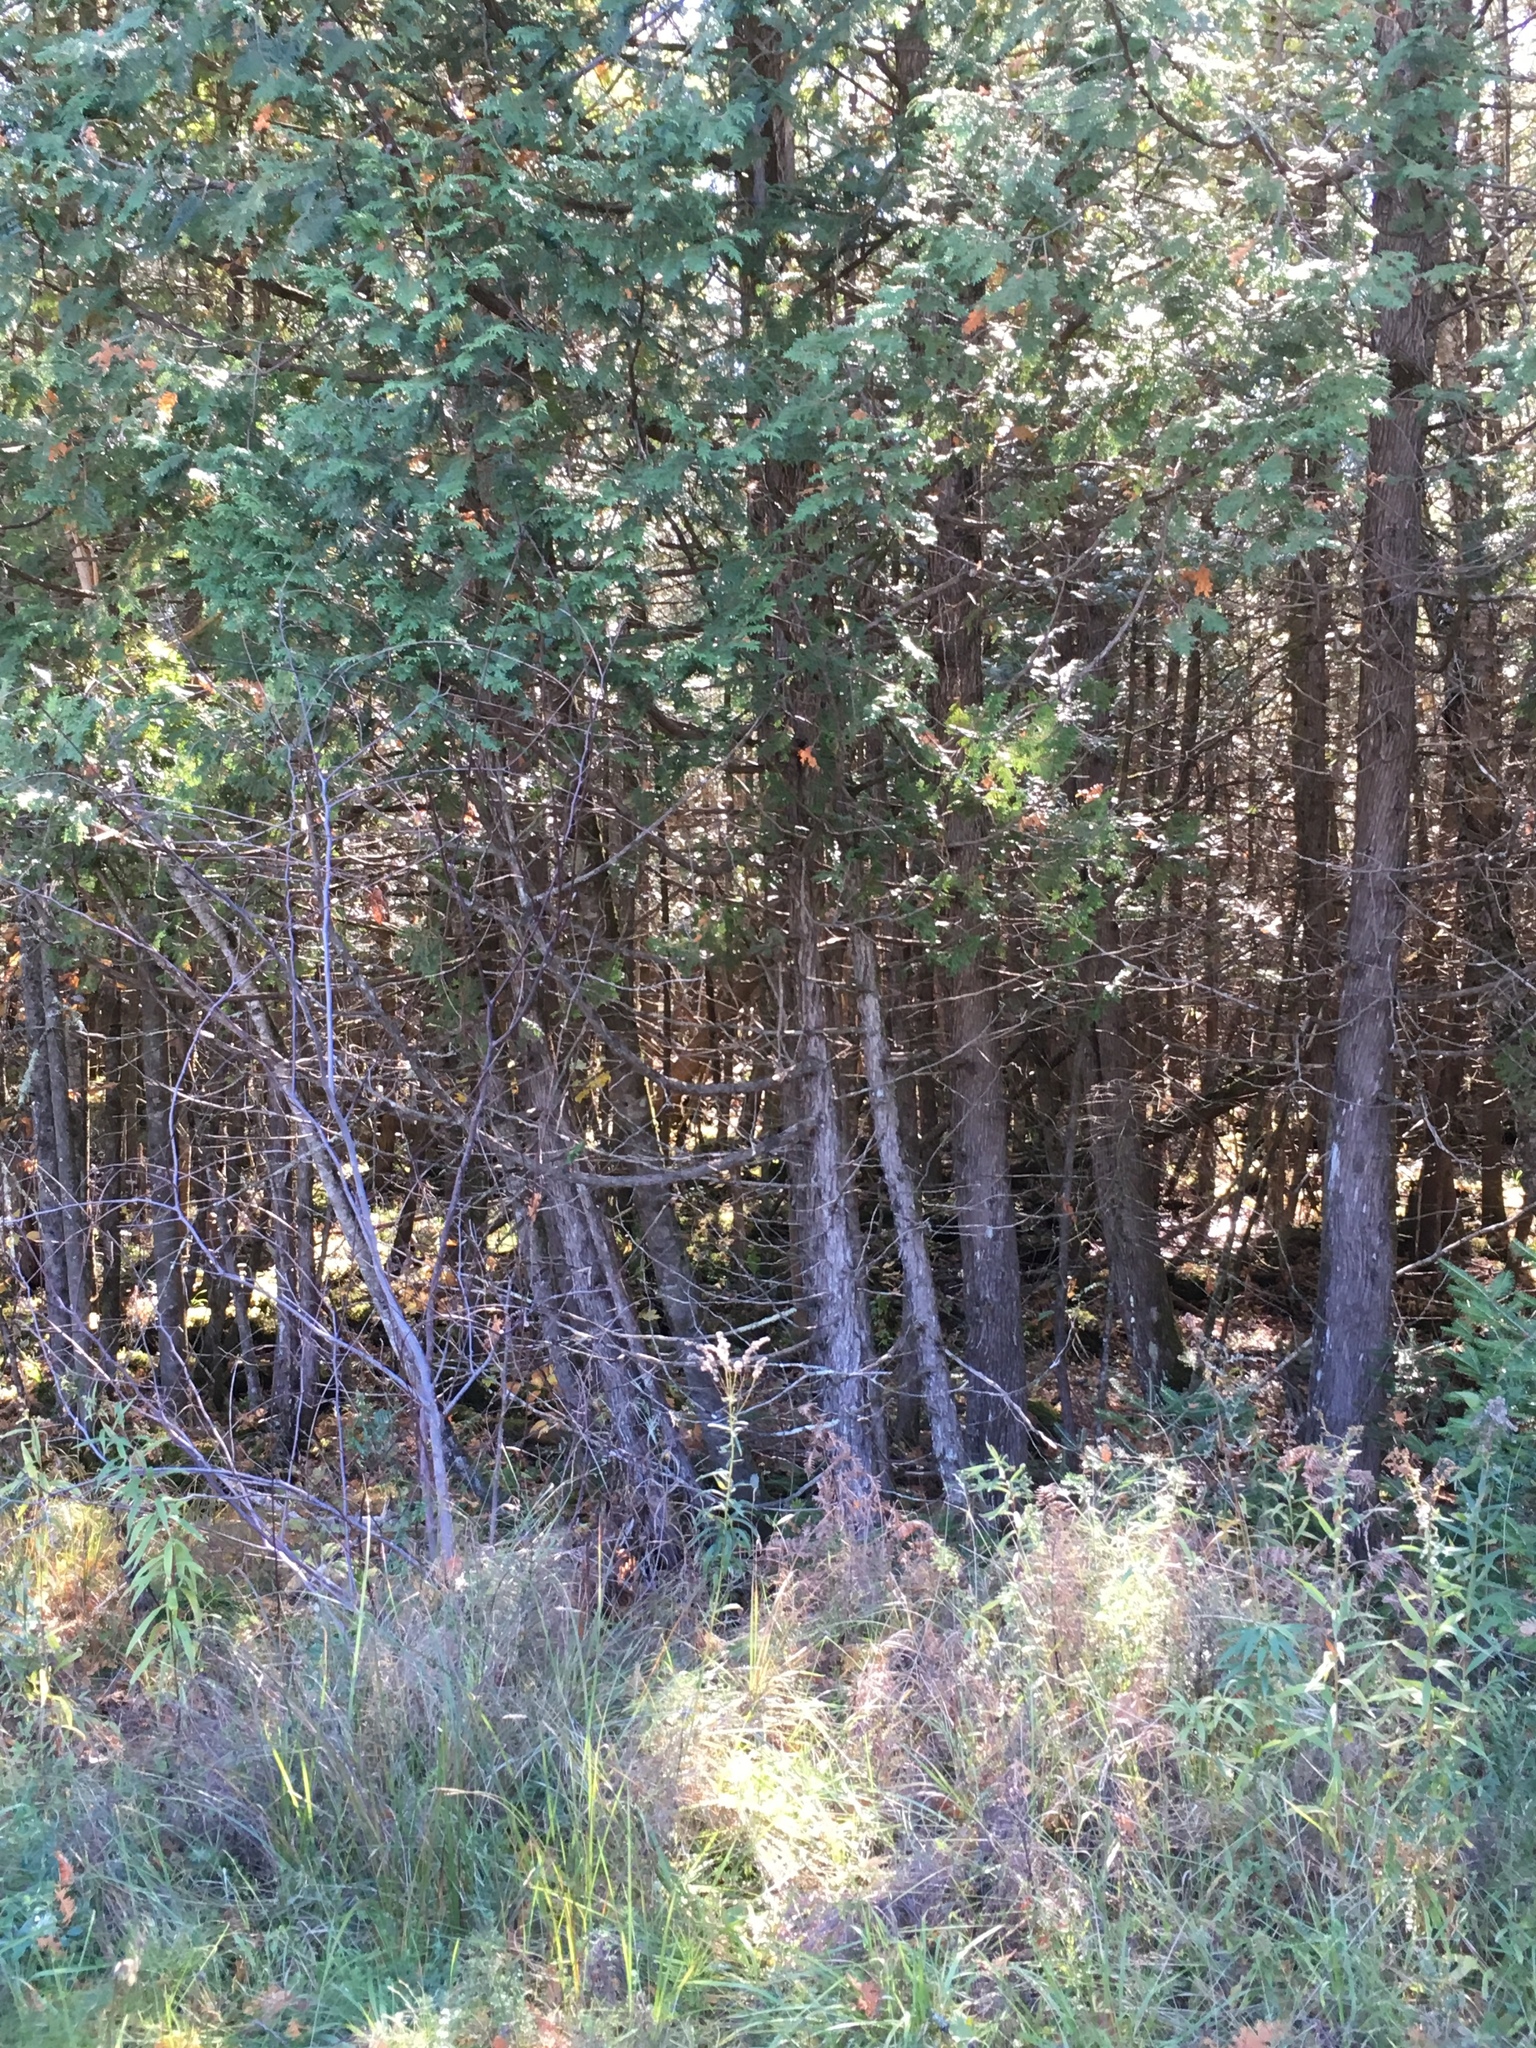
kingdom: Plantae
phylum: Tracheophyta
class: Pinopsida
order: Pinales
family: Cupressaceae
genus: Thuja
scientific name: Thuja occidentalis
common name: Northern white-cedar
